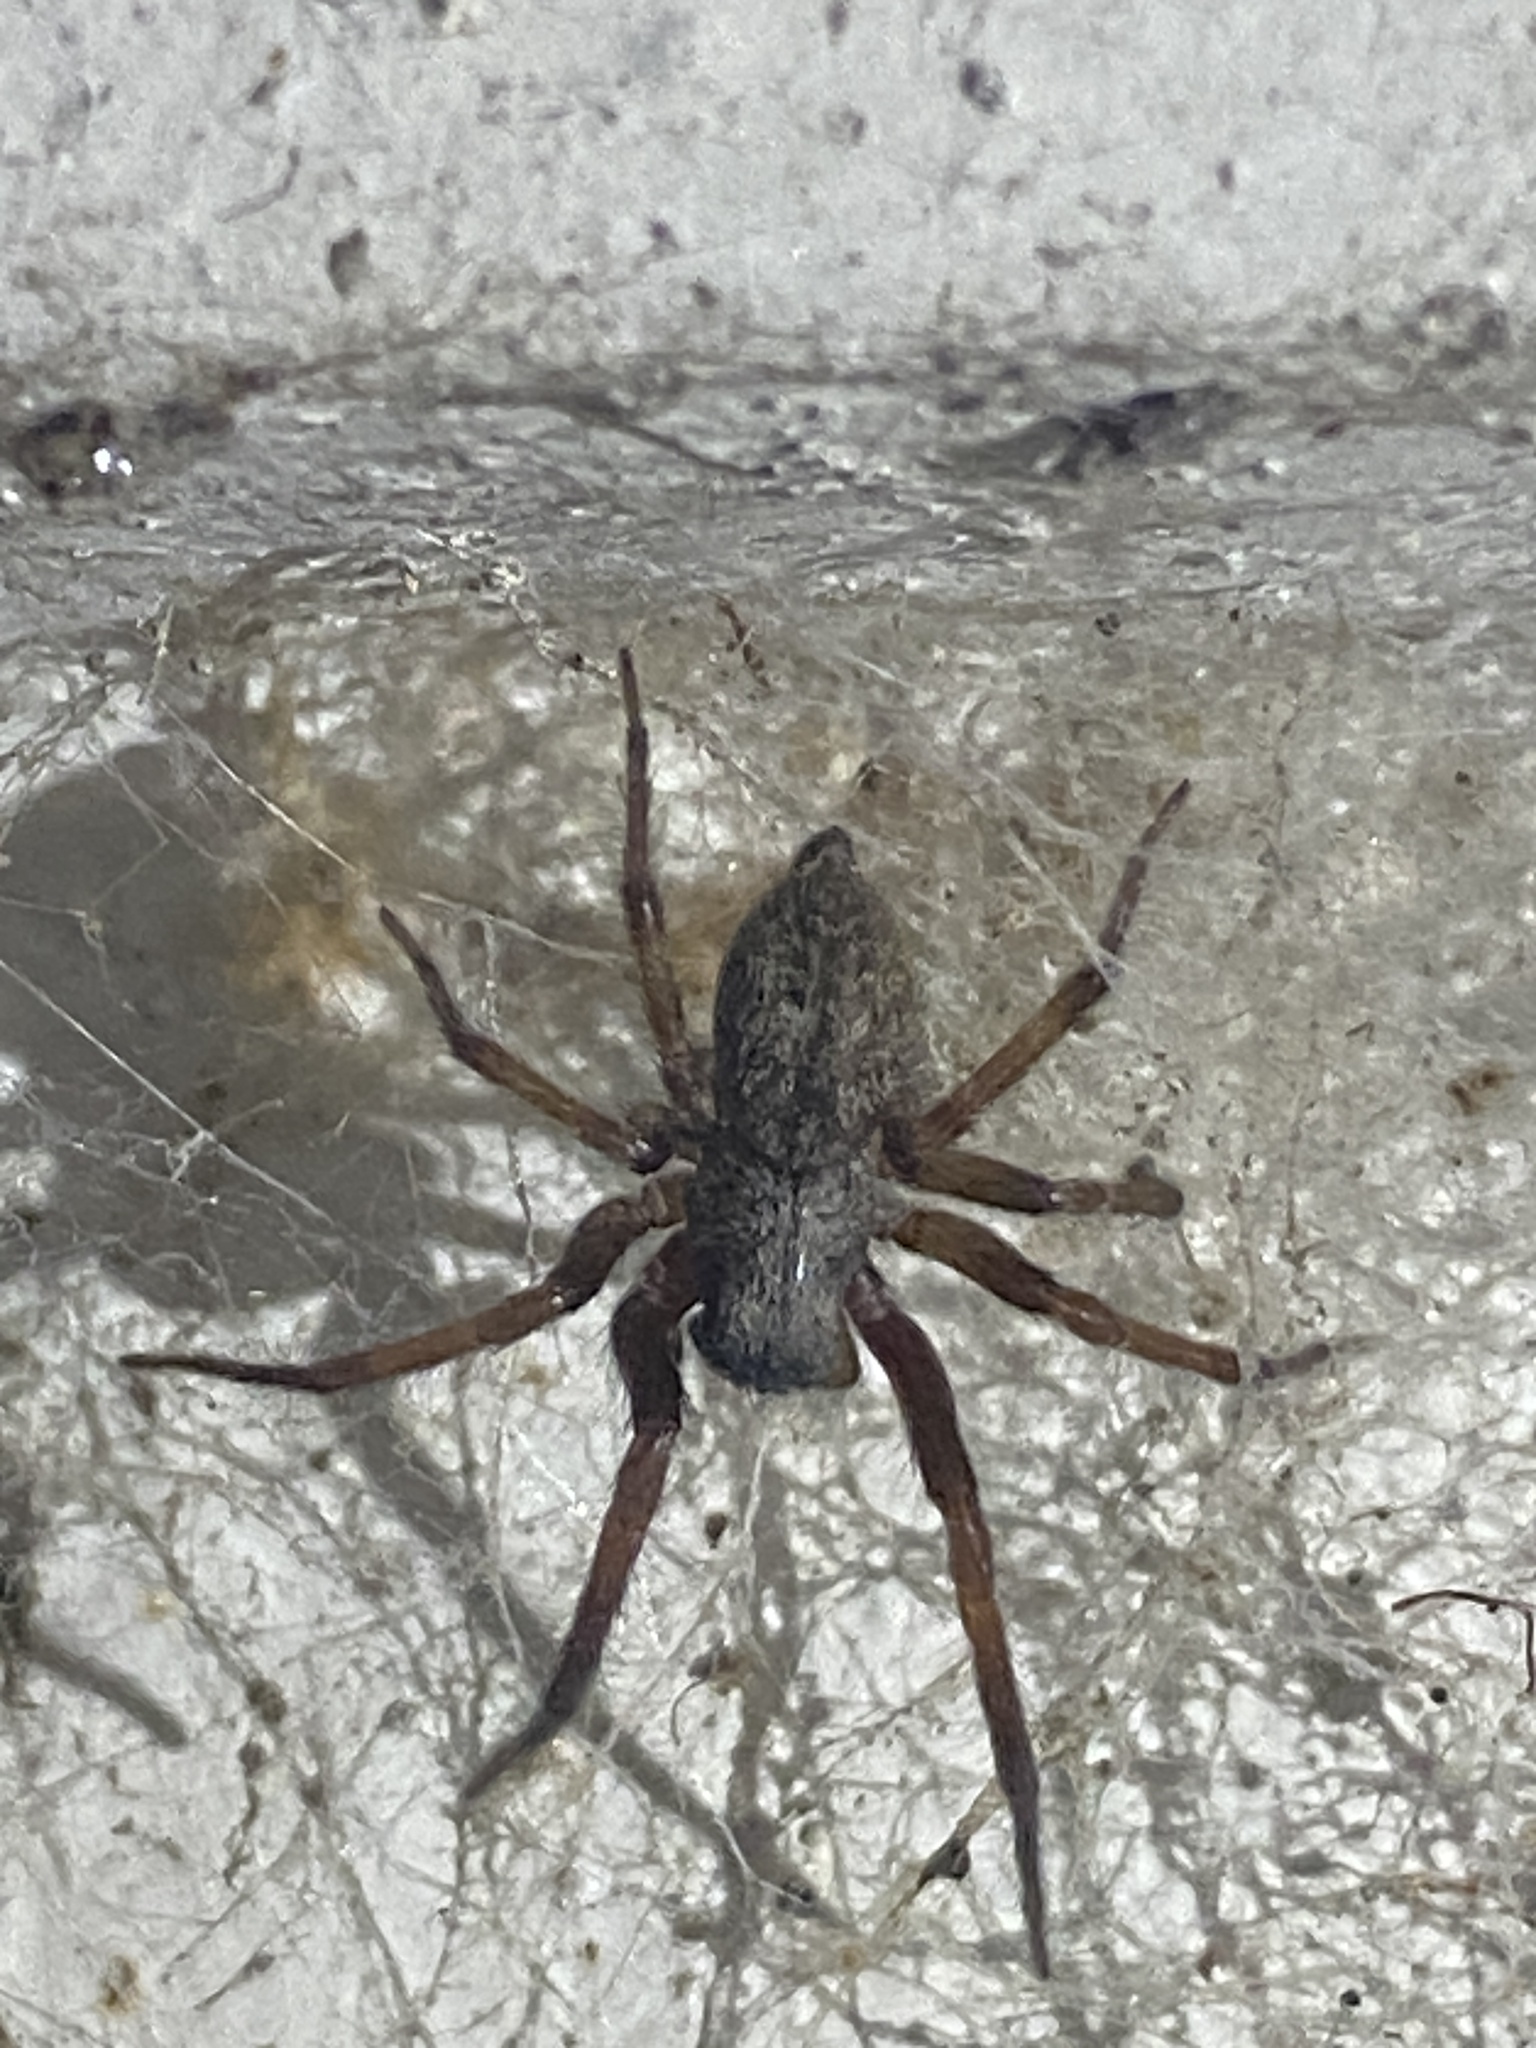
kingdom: Animalia
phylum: Arthropoda
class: Arachnida
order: Araneae
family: Desidae
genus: Badumna
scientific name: Badumna longinqua
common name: Gray house spider
